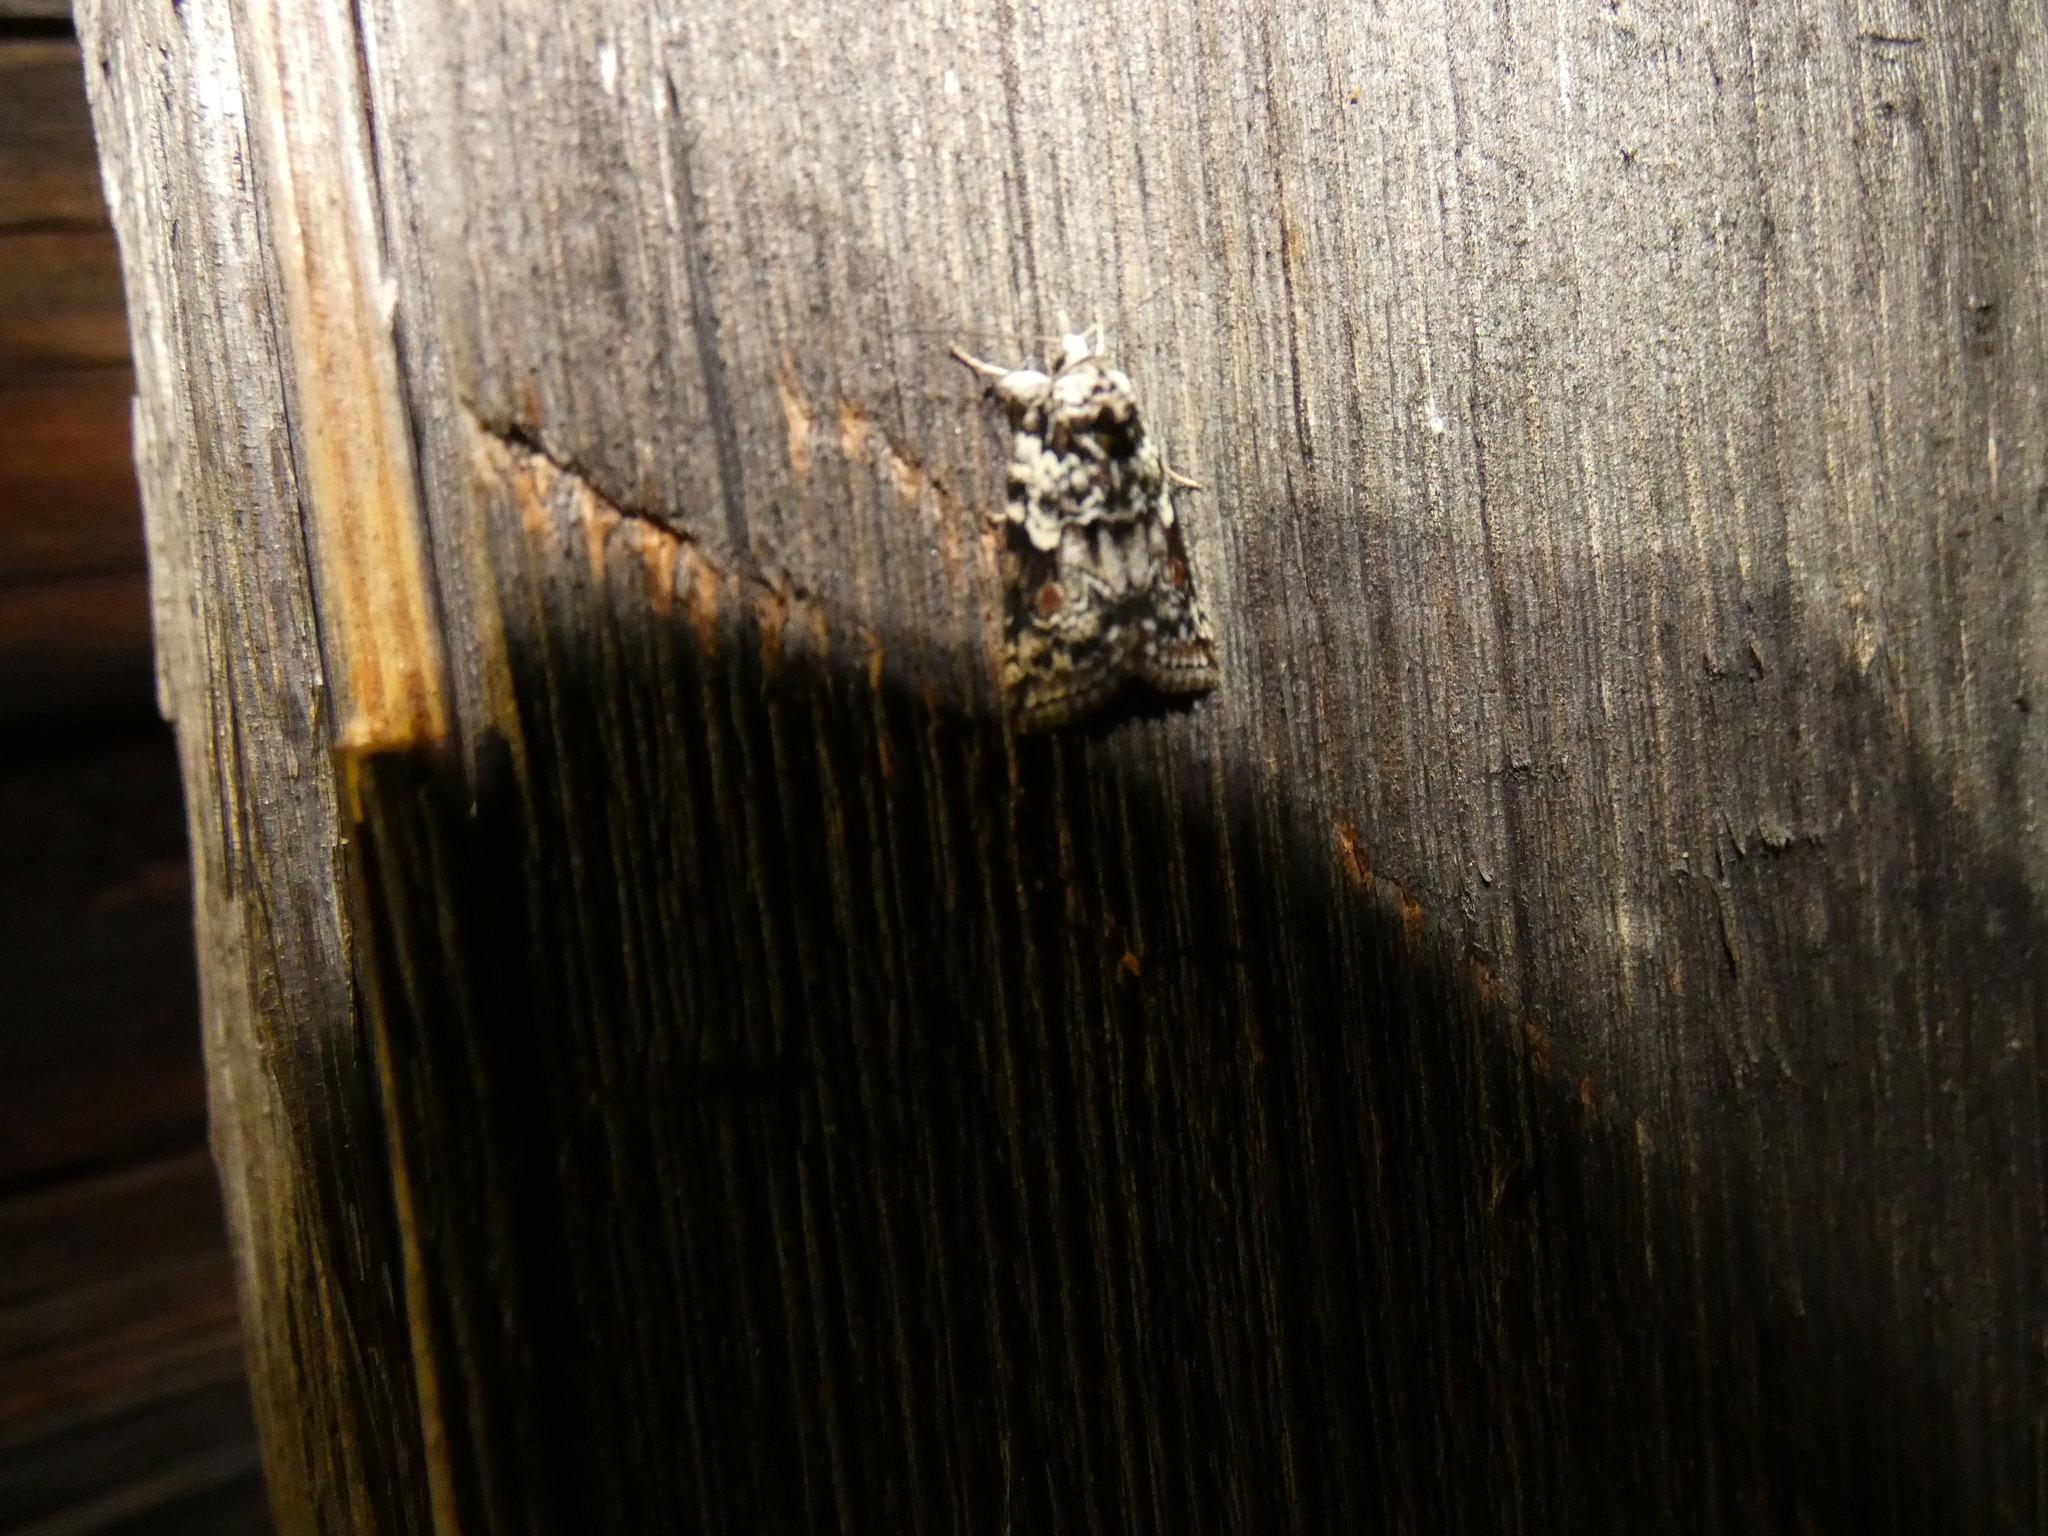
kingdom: Animalia
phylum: Arthropoda
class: Insecta
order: Lepidoptera
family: Nolidae
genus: Nycteola
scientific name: Nycteola degenerana
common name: Swallow nycteoline
